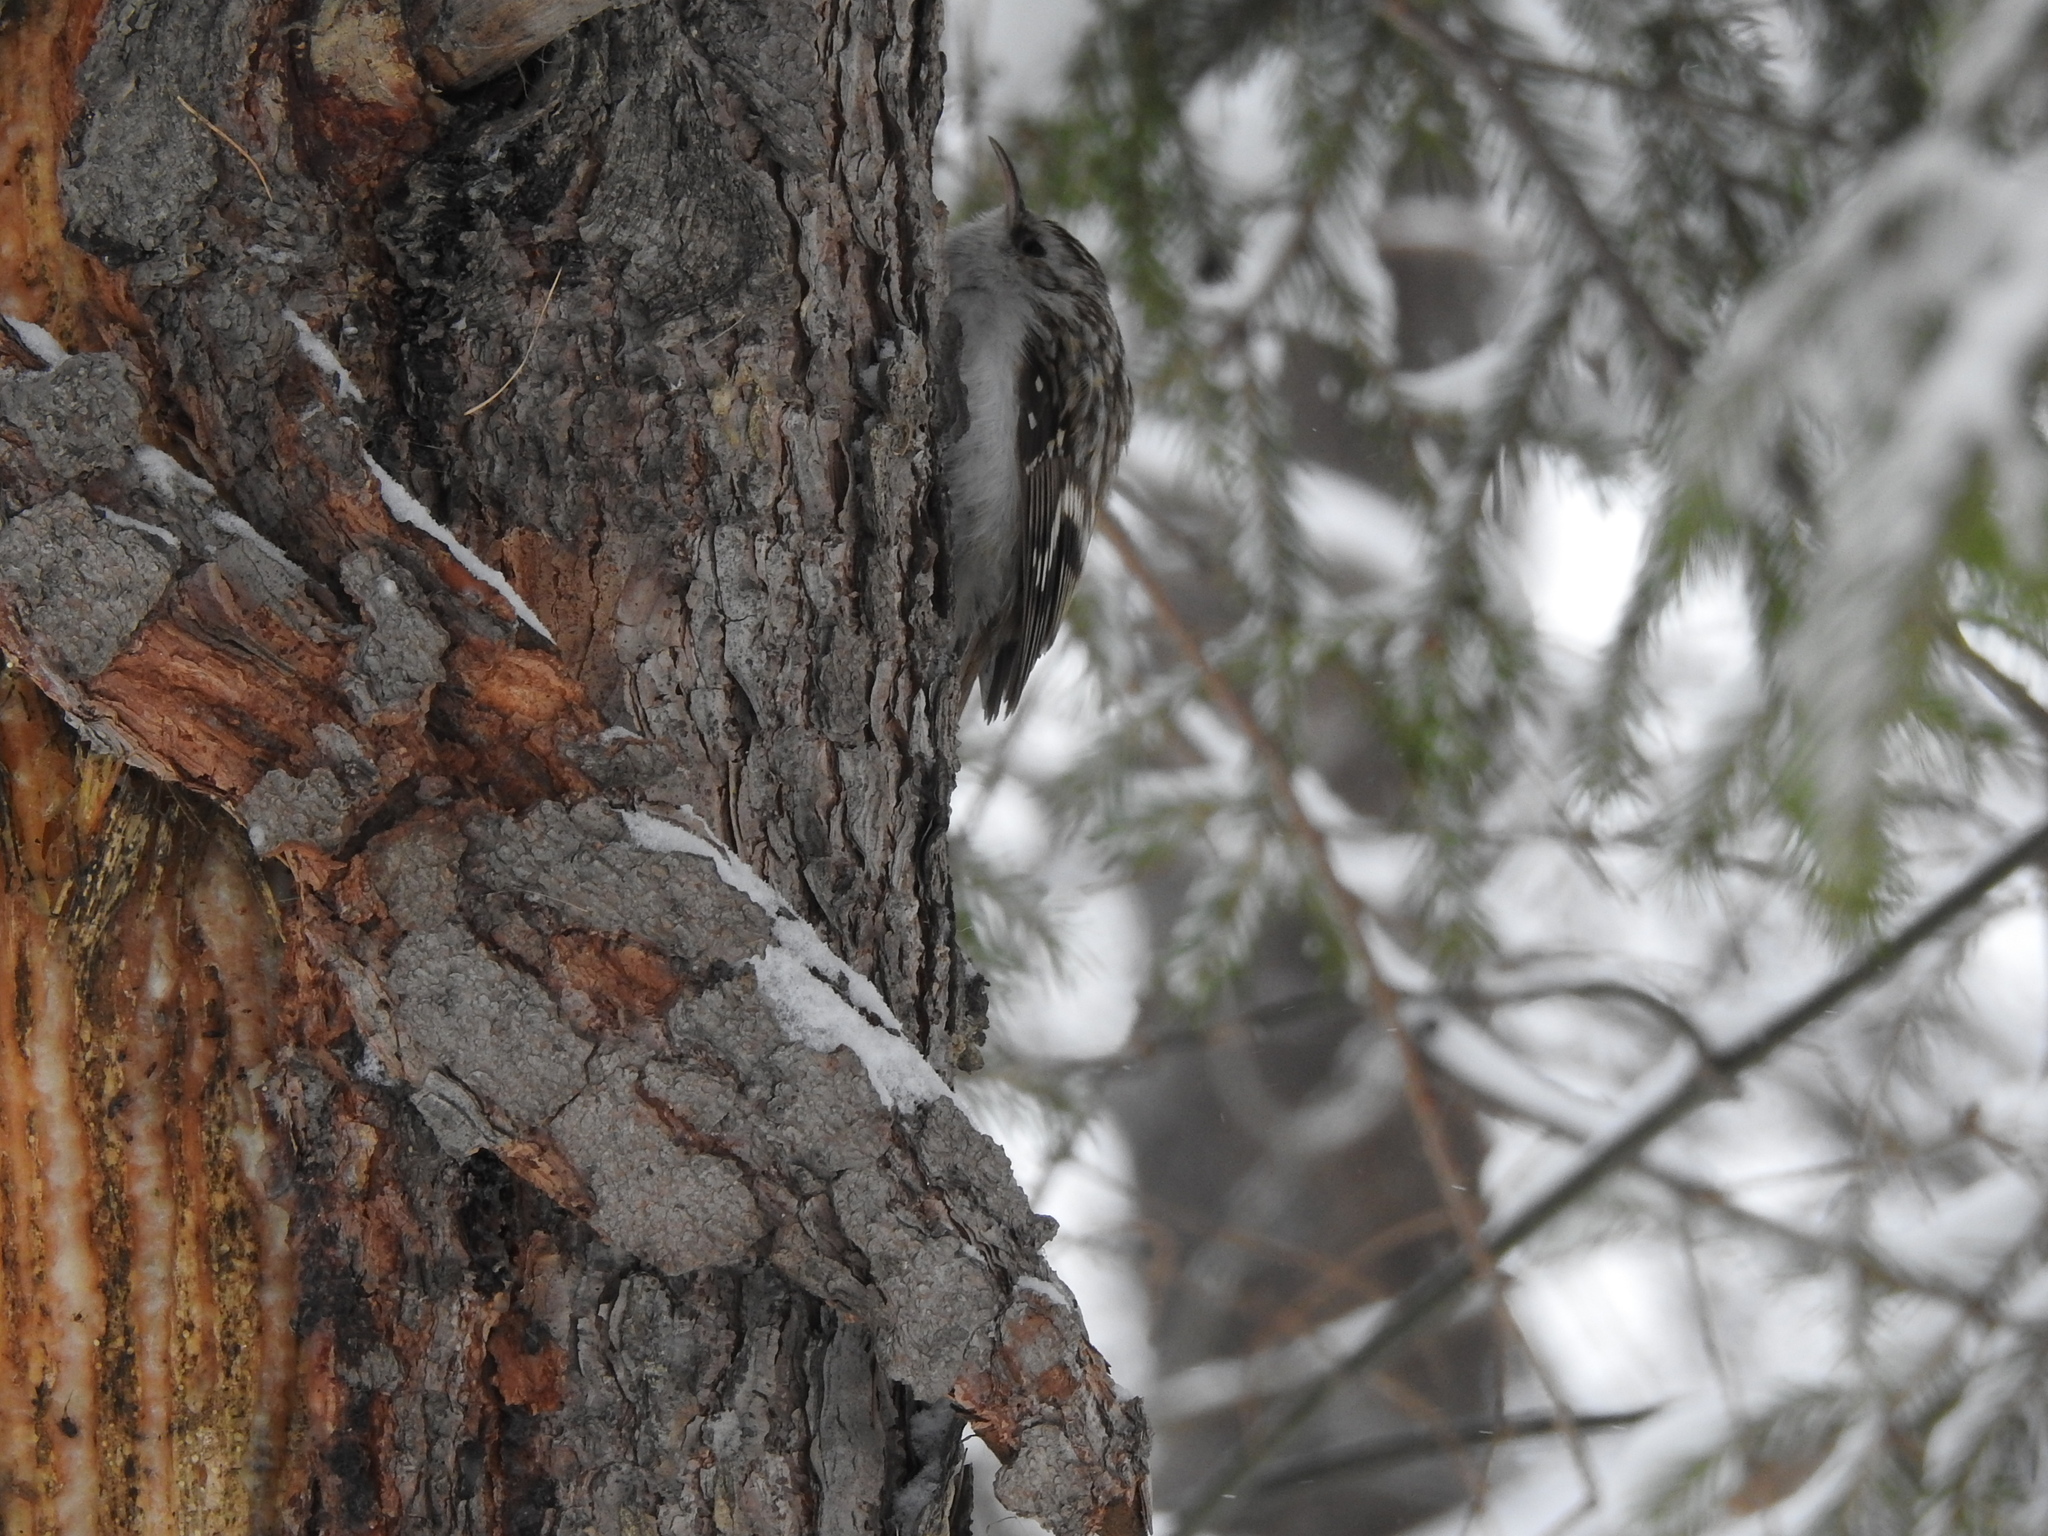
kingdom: Animalia
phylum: Chordata
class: Aves
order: Passeriformes
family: Certhiidae
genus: Certhia
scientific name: Certhia familiaris
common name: Eurasian treecreeper
